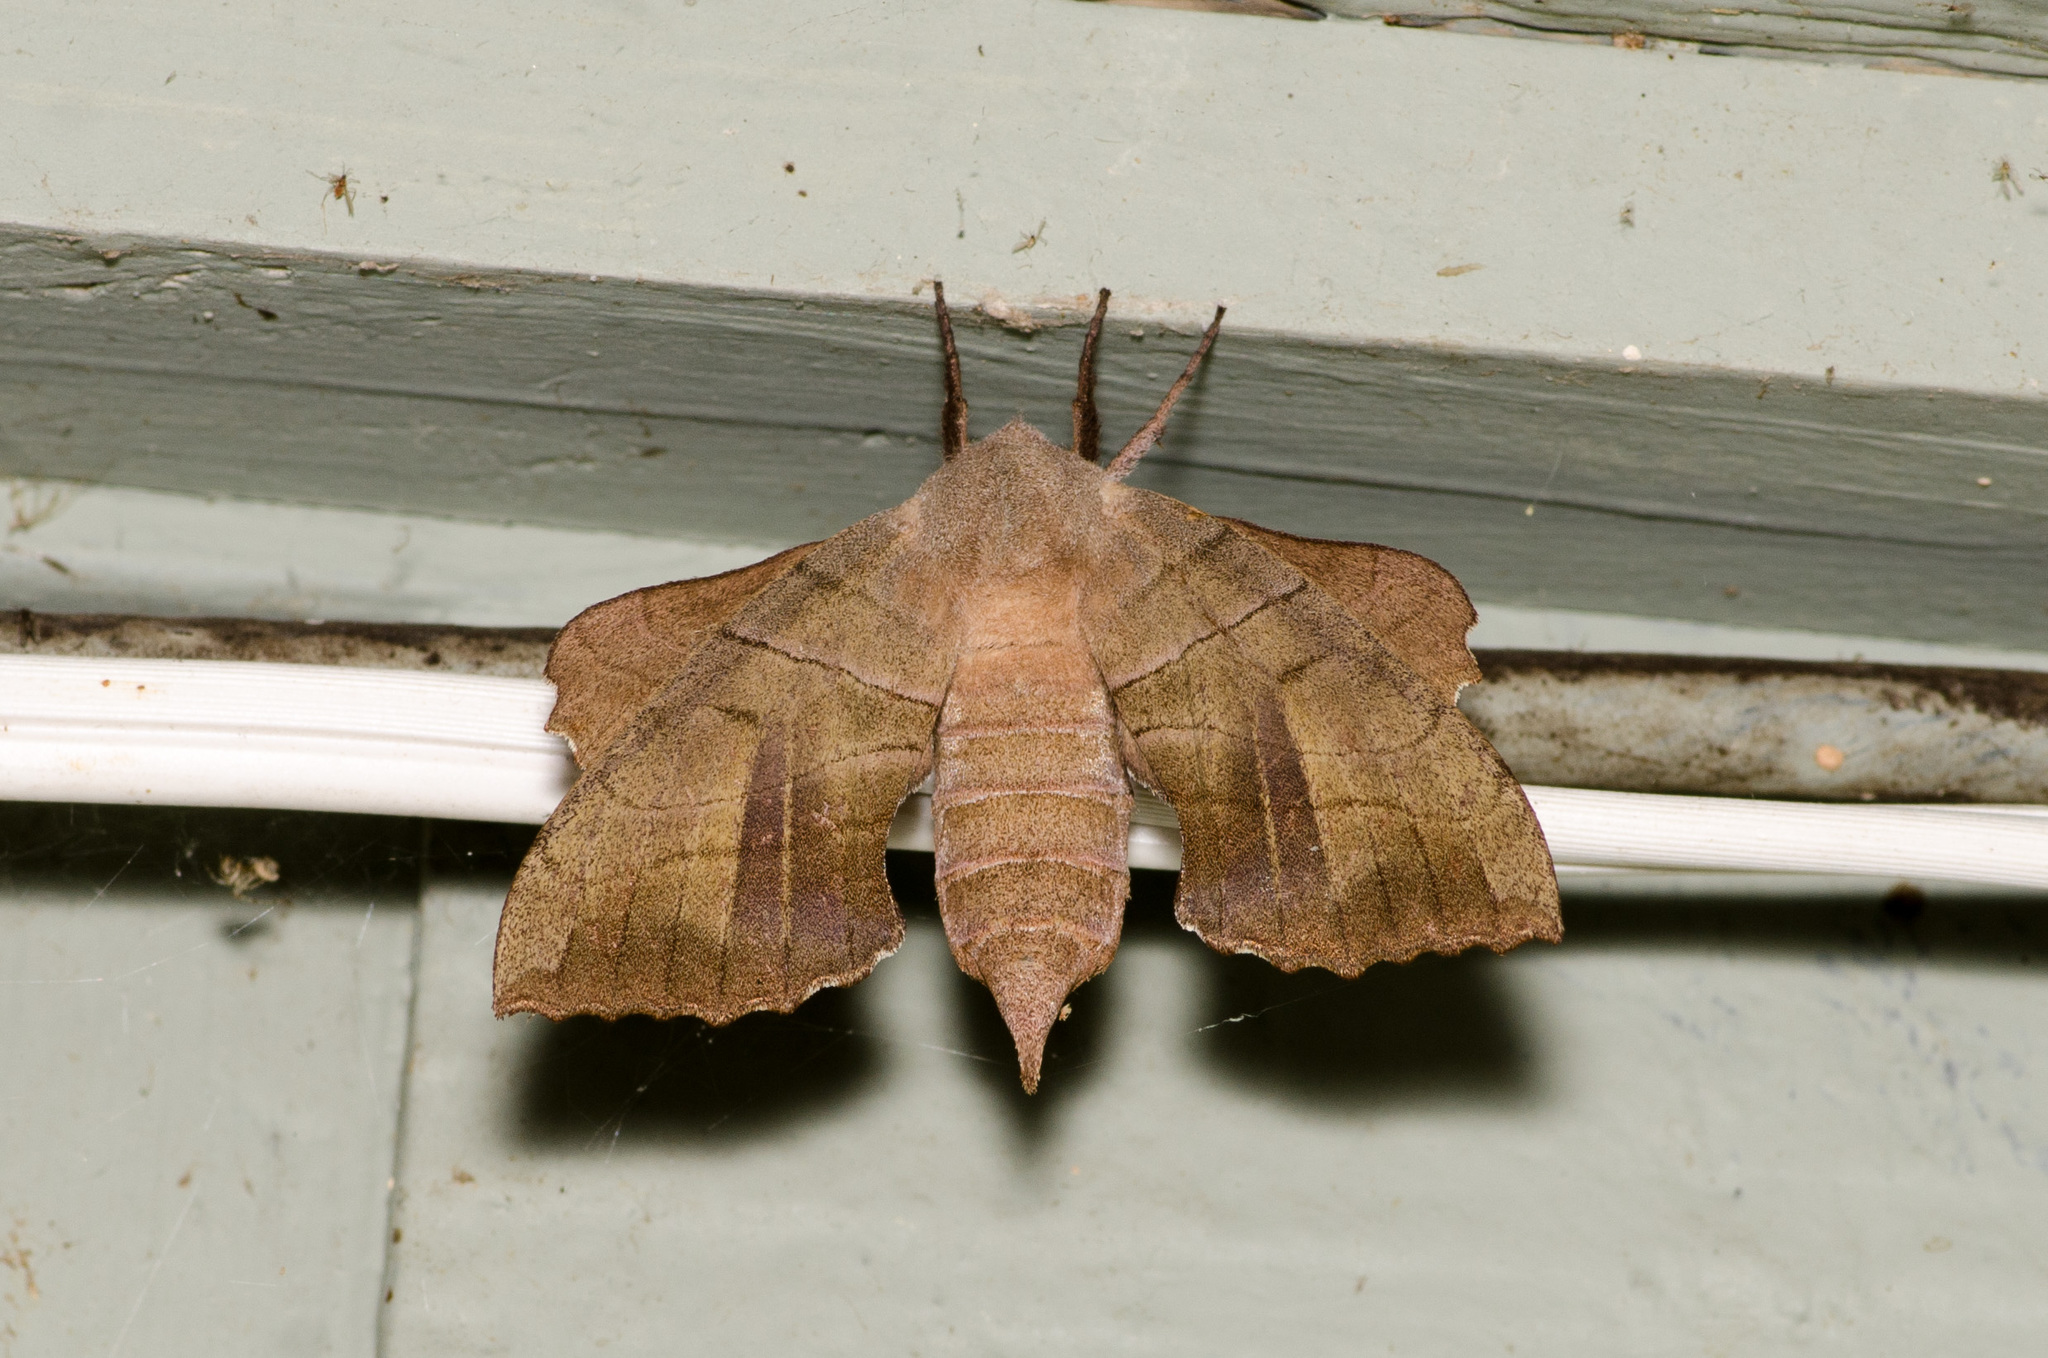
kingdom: Animalia
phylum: Arthropoda
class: Insecta
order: Lepidoptera
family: Sphingidae
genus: Amorpha
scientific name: Amorpha juglandis
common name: Walnut sphinx
